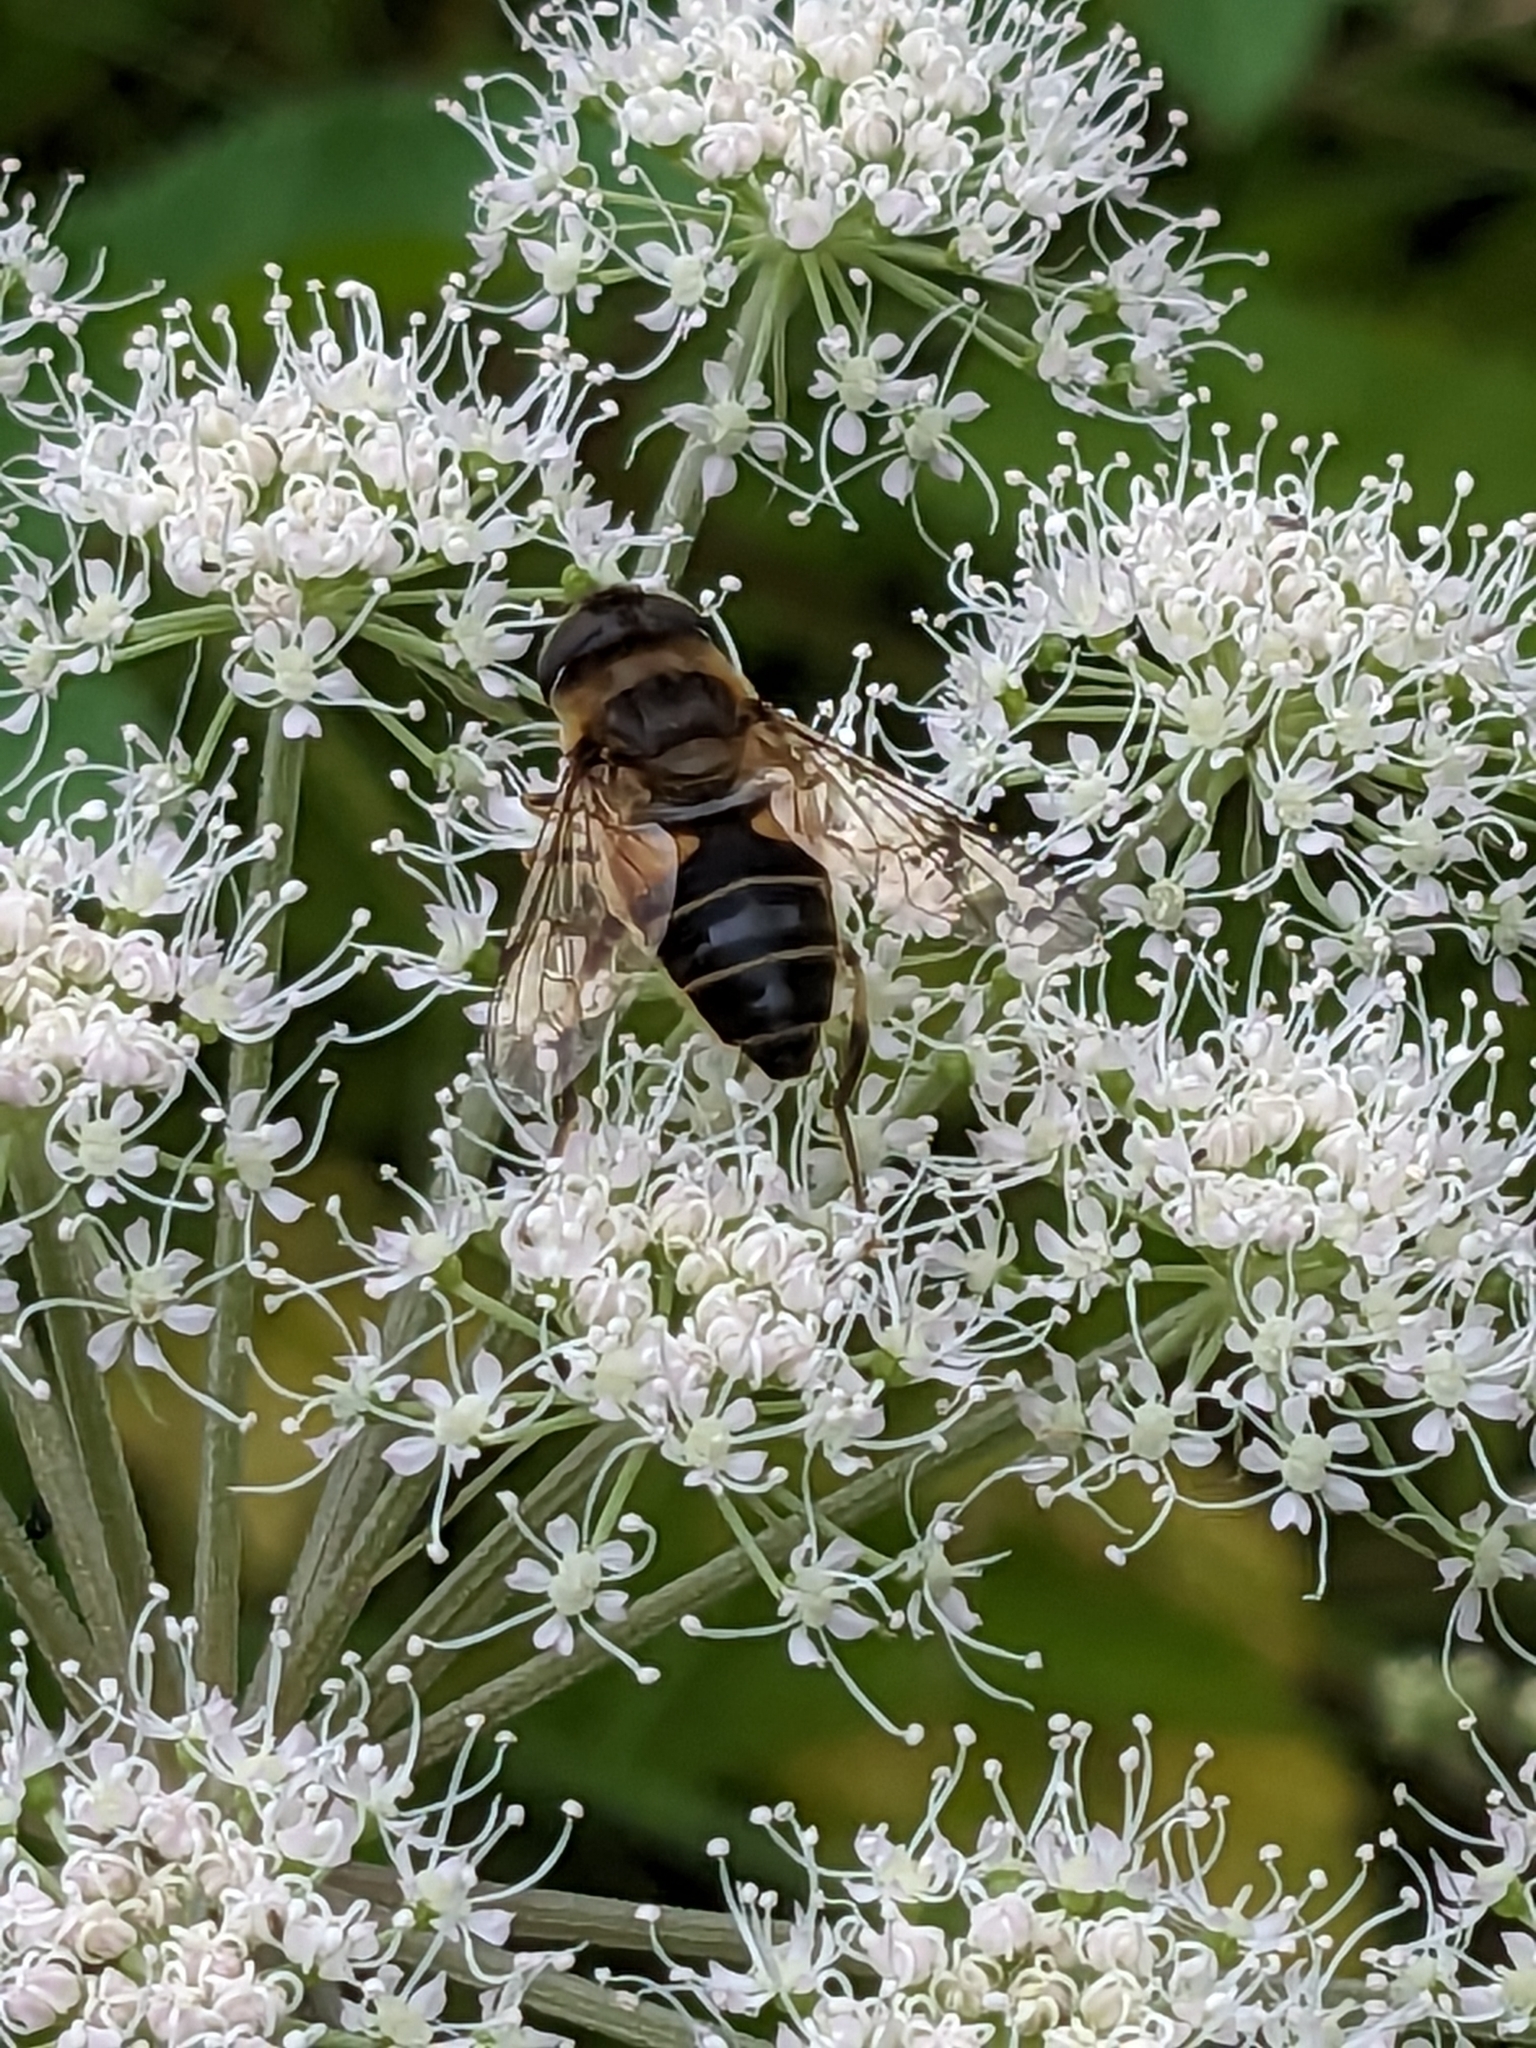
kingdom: Animalia
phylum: Arthropoda
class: Insecta
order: Diptera
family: Syrphidae
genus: Eristalis
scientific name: Eristalis pertinax
